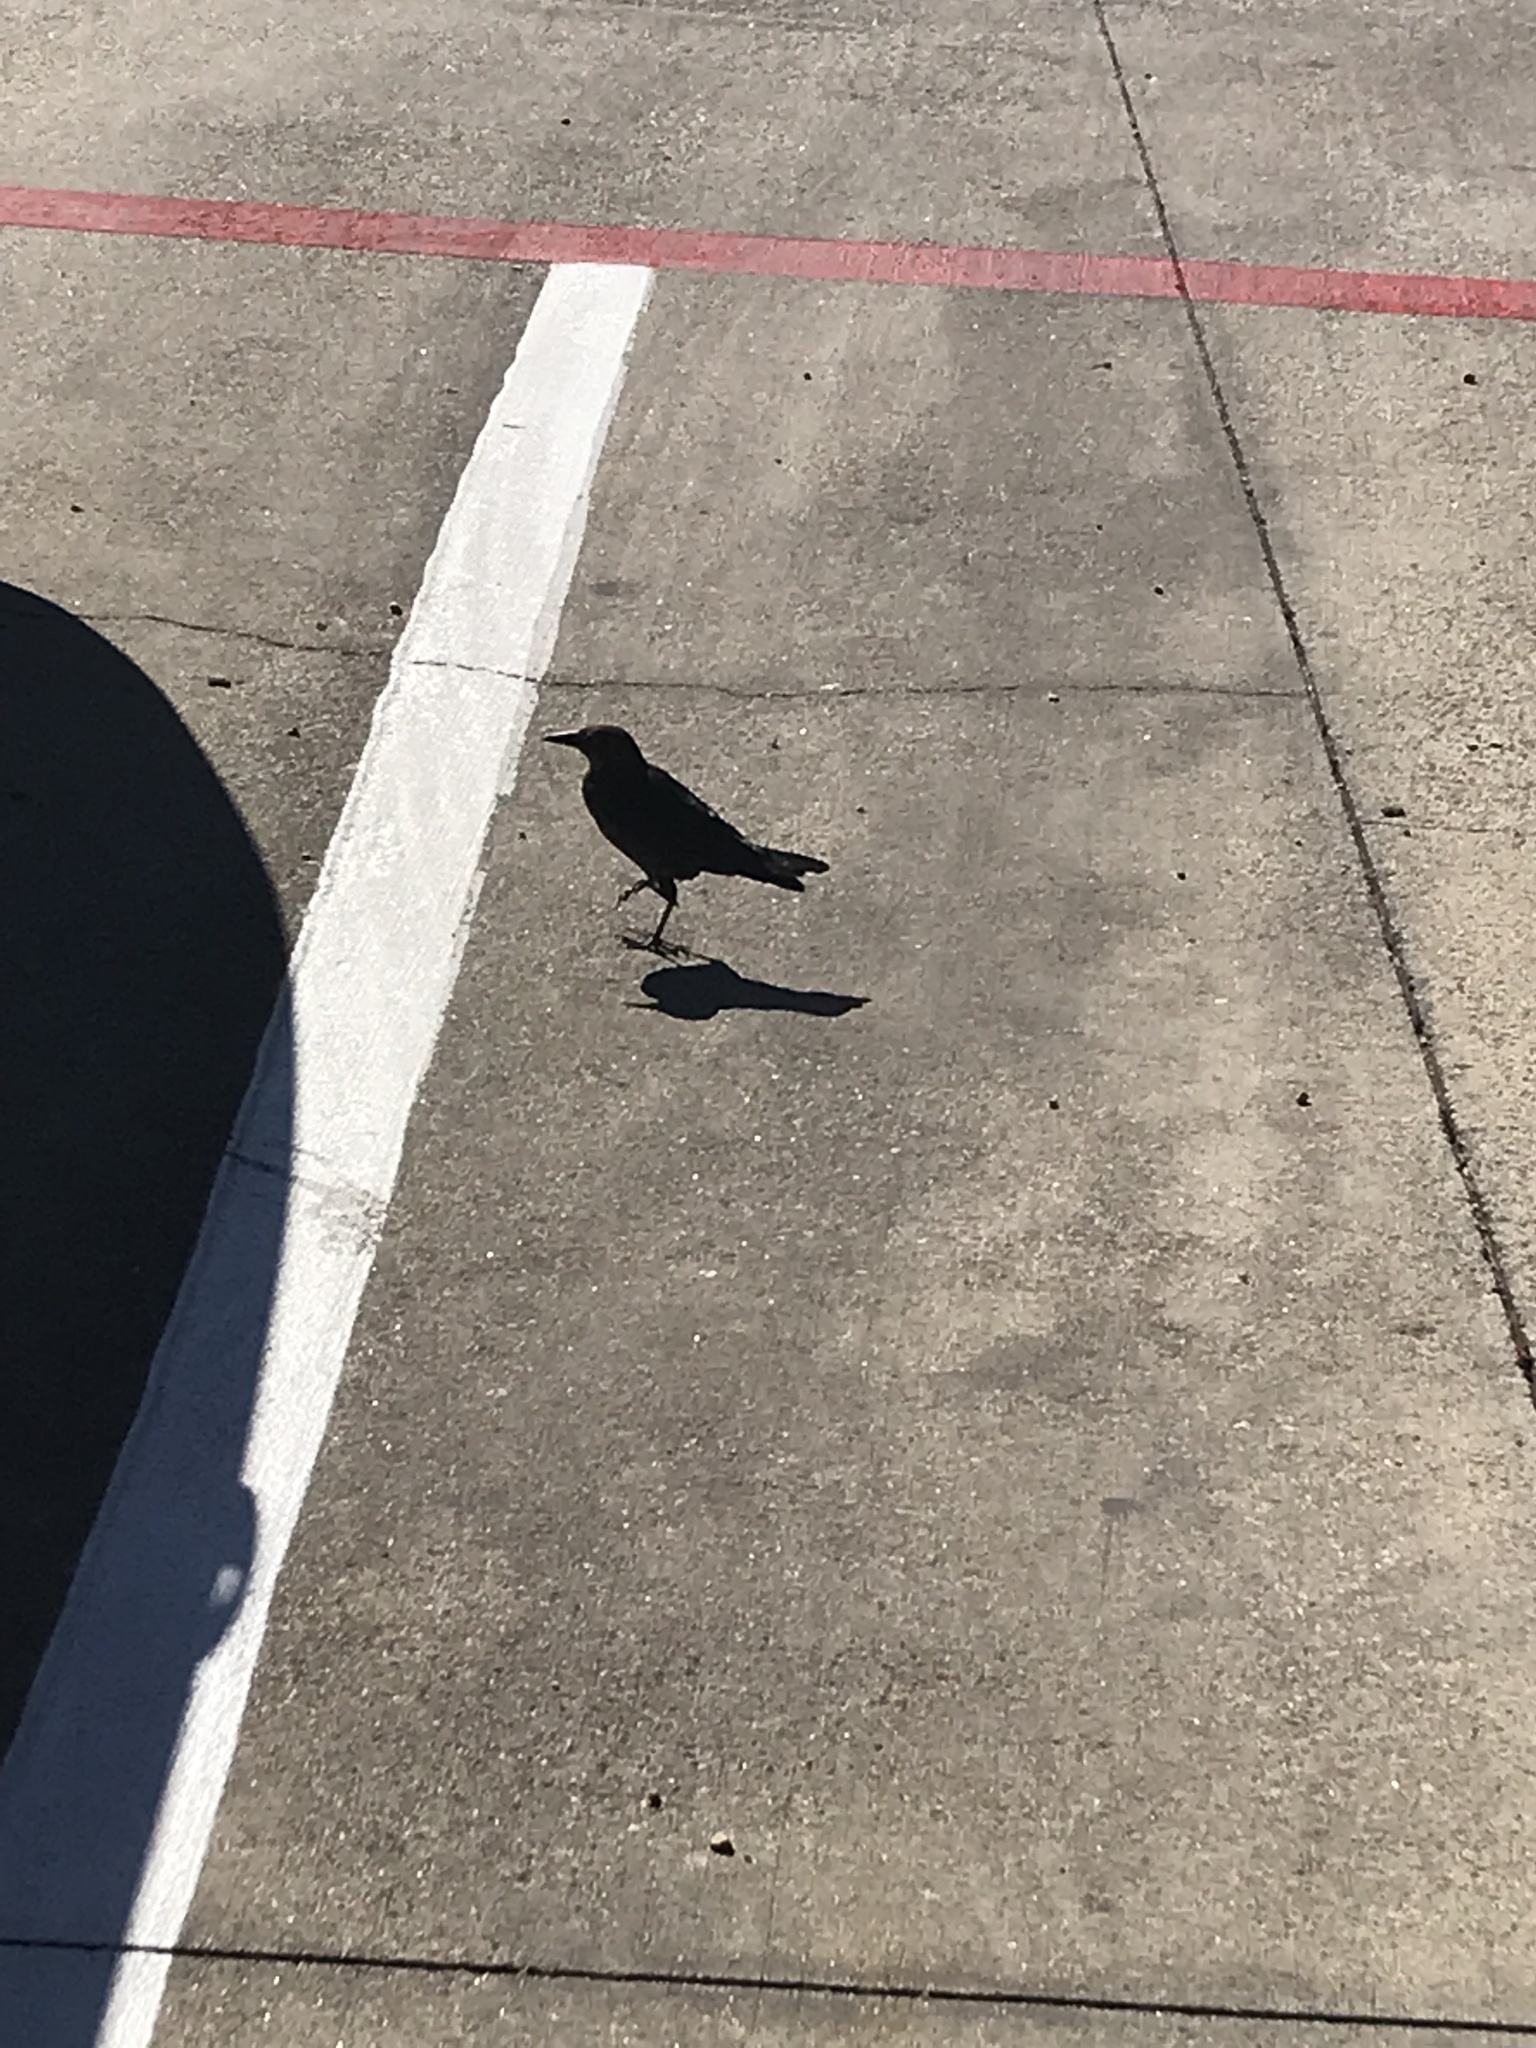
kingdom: Animalia
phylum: Chordata
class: Aves
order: Passeriformes
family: Icteridae
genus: Quiscalus
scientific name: Quiscalus mexicanus
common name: Great-tailed grackle
